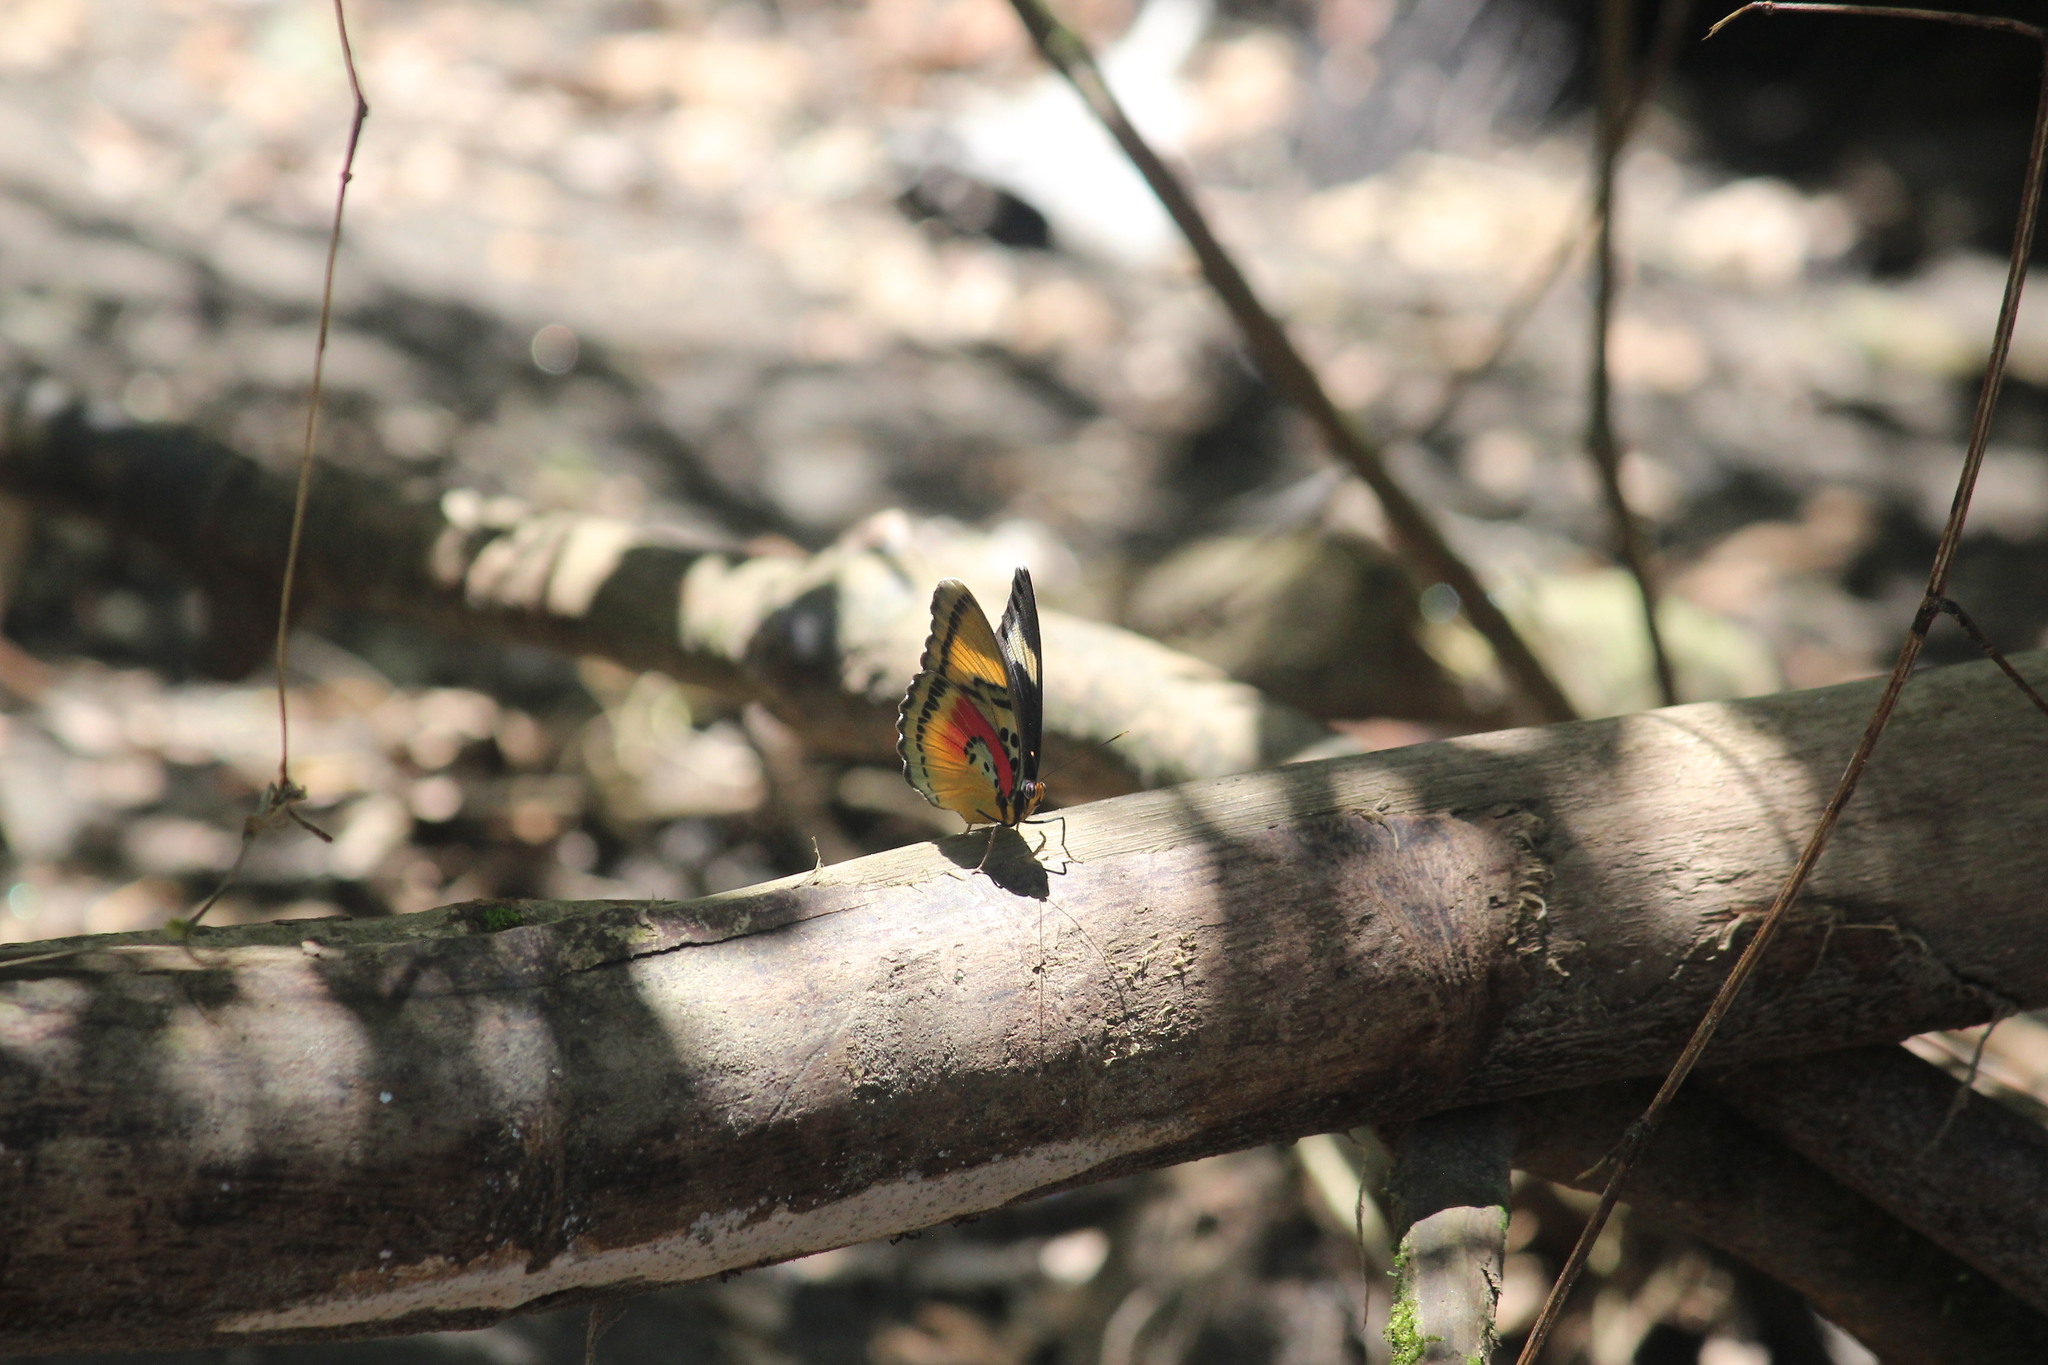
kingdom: Animalia
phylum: Arthropoda
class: Insecta
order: Lepidoptera
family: Nymphalidae
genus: Euphaedra
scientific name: Euphaedra caerulescens
